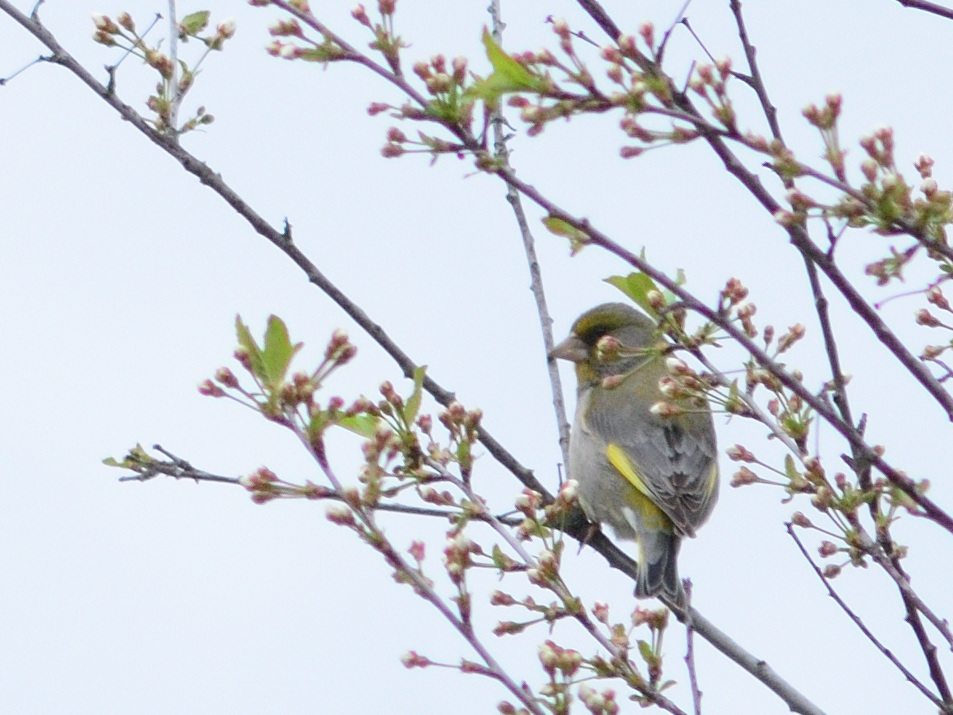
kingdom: Plantae
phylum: Tracheophyta
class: Liliopsida
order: Poales
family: Poaceae
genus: Chloris
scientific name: Chloris chloris
